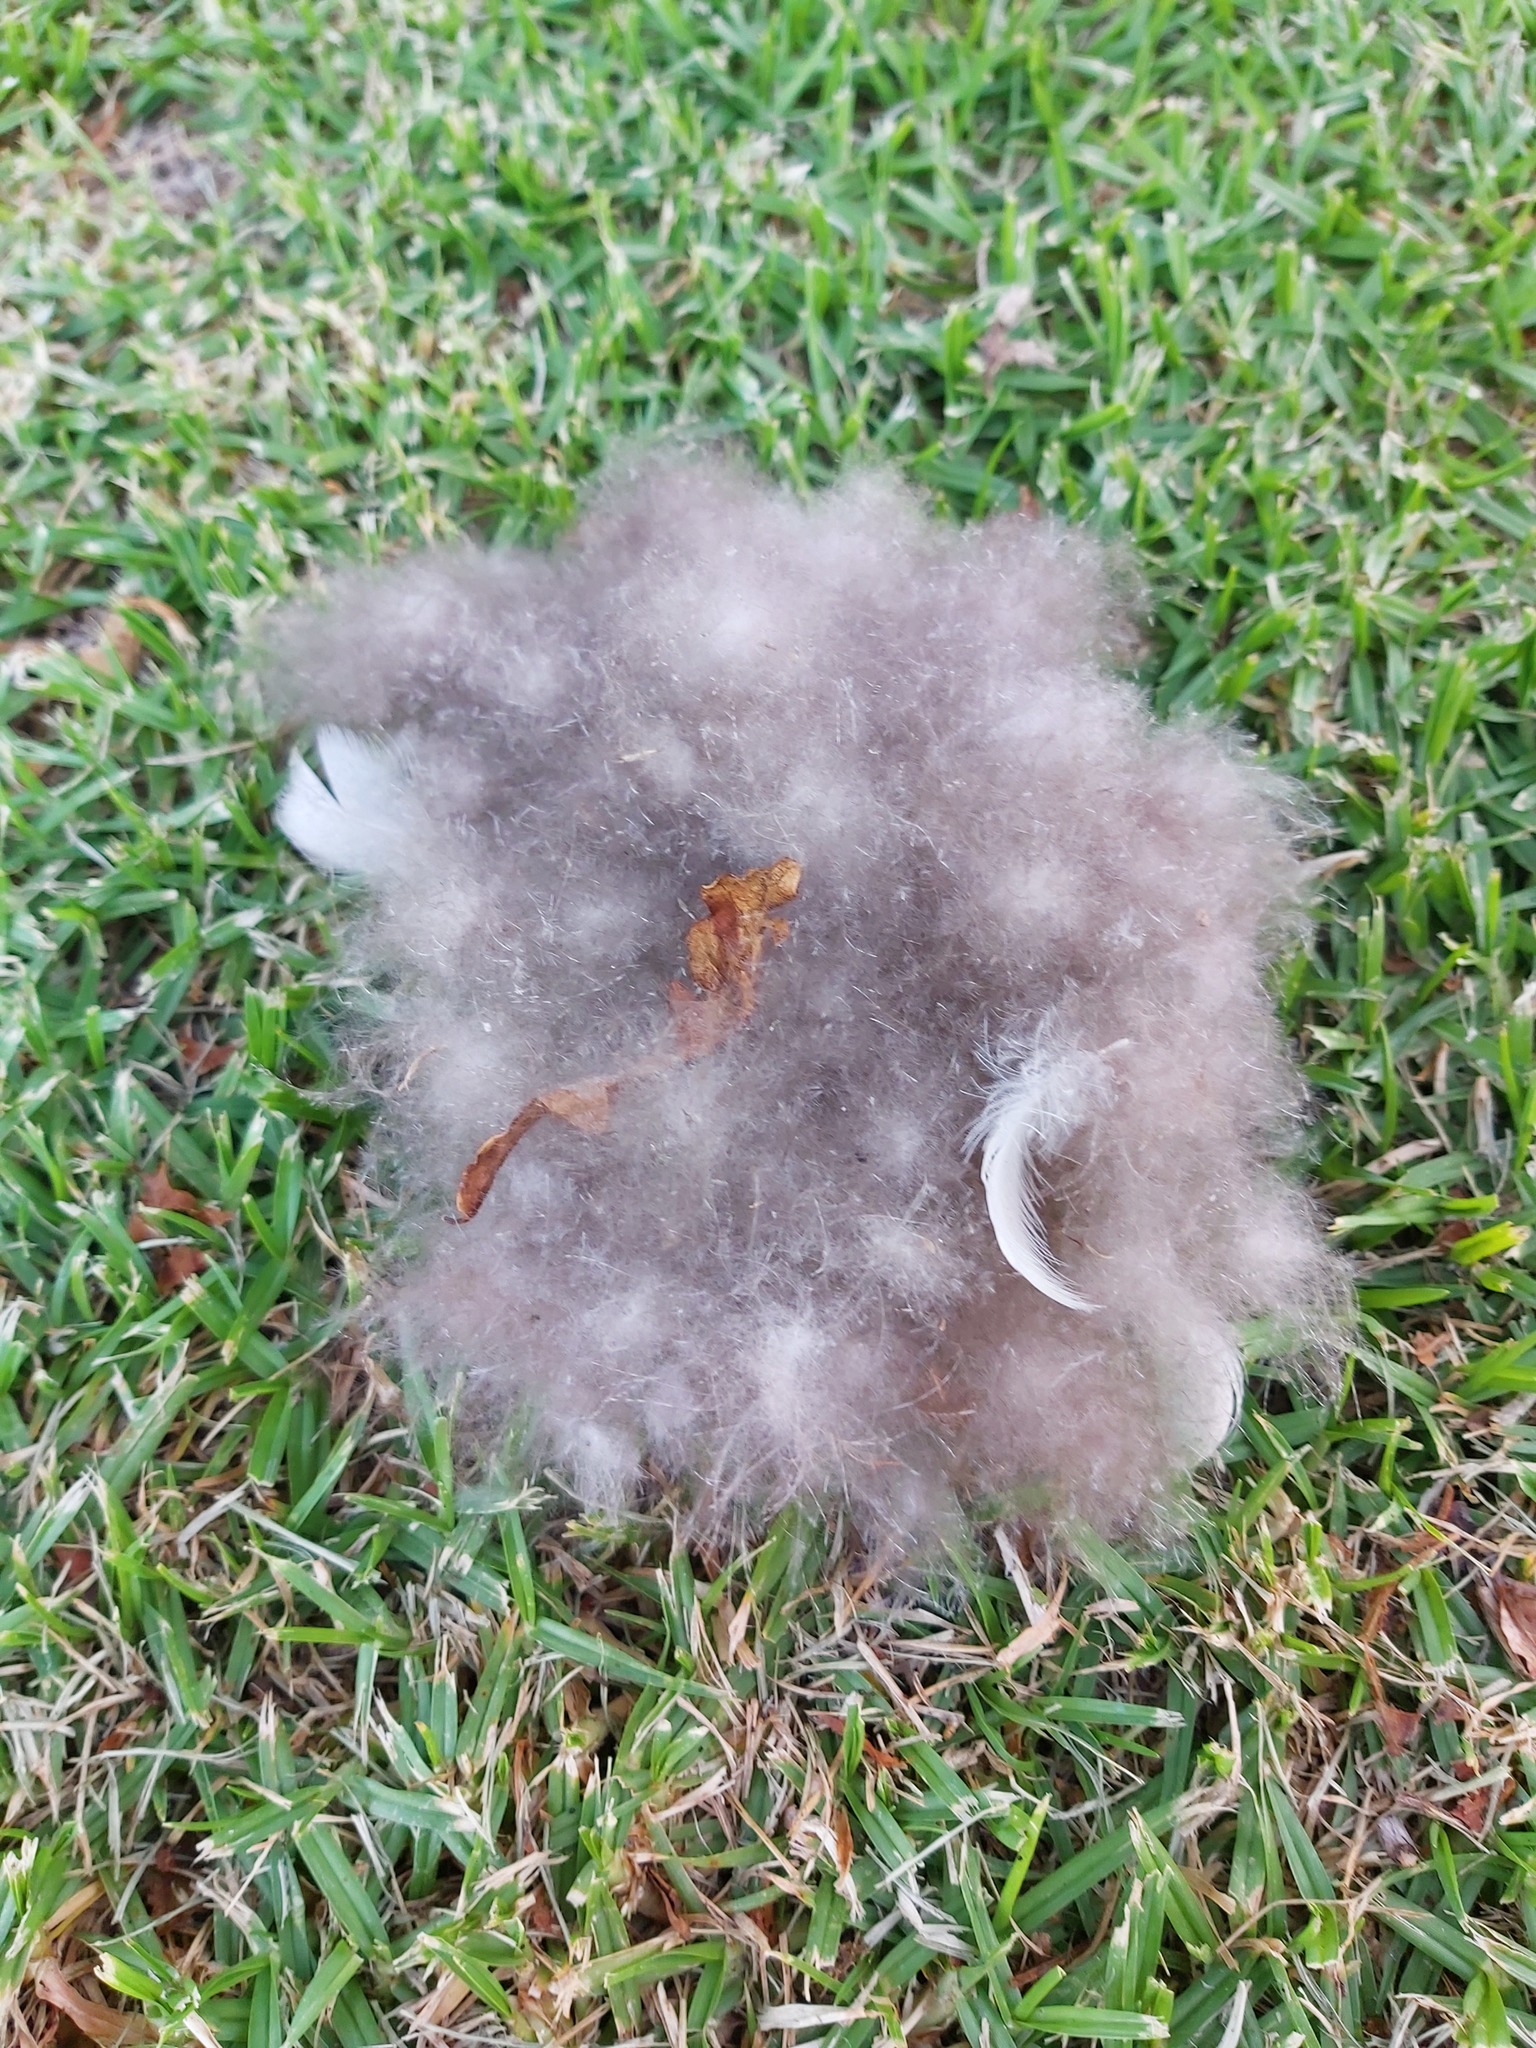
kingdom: Animalia
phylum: Chordata
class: Aves
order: Anseriformes
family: Anatidae
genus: Alopochen
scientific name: Alopochen aegyptiaca
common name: Egyptian goose
